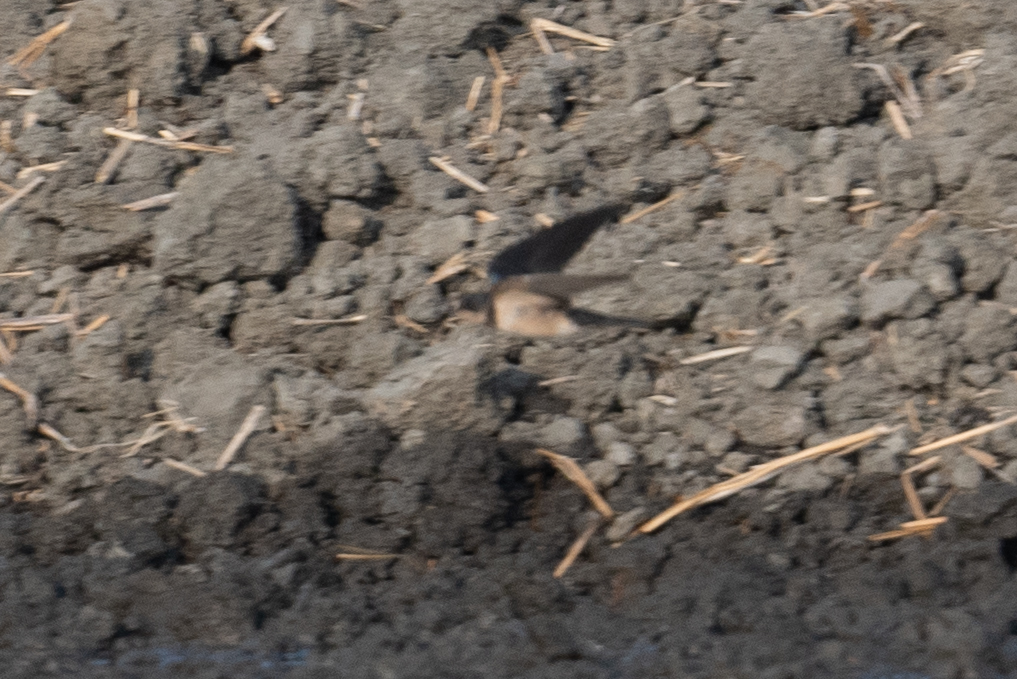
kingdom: Animalia
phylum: Chordata
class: Aves
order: Passeriformes
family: Hirundinidae
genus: Hirundo
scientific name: Hirundo rustica
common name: Barn swallow
